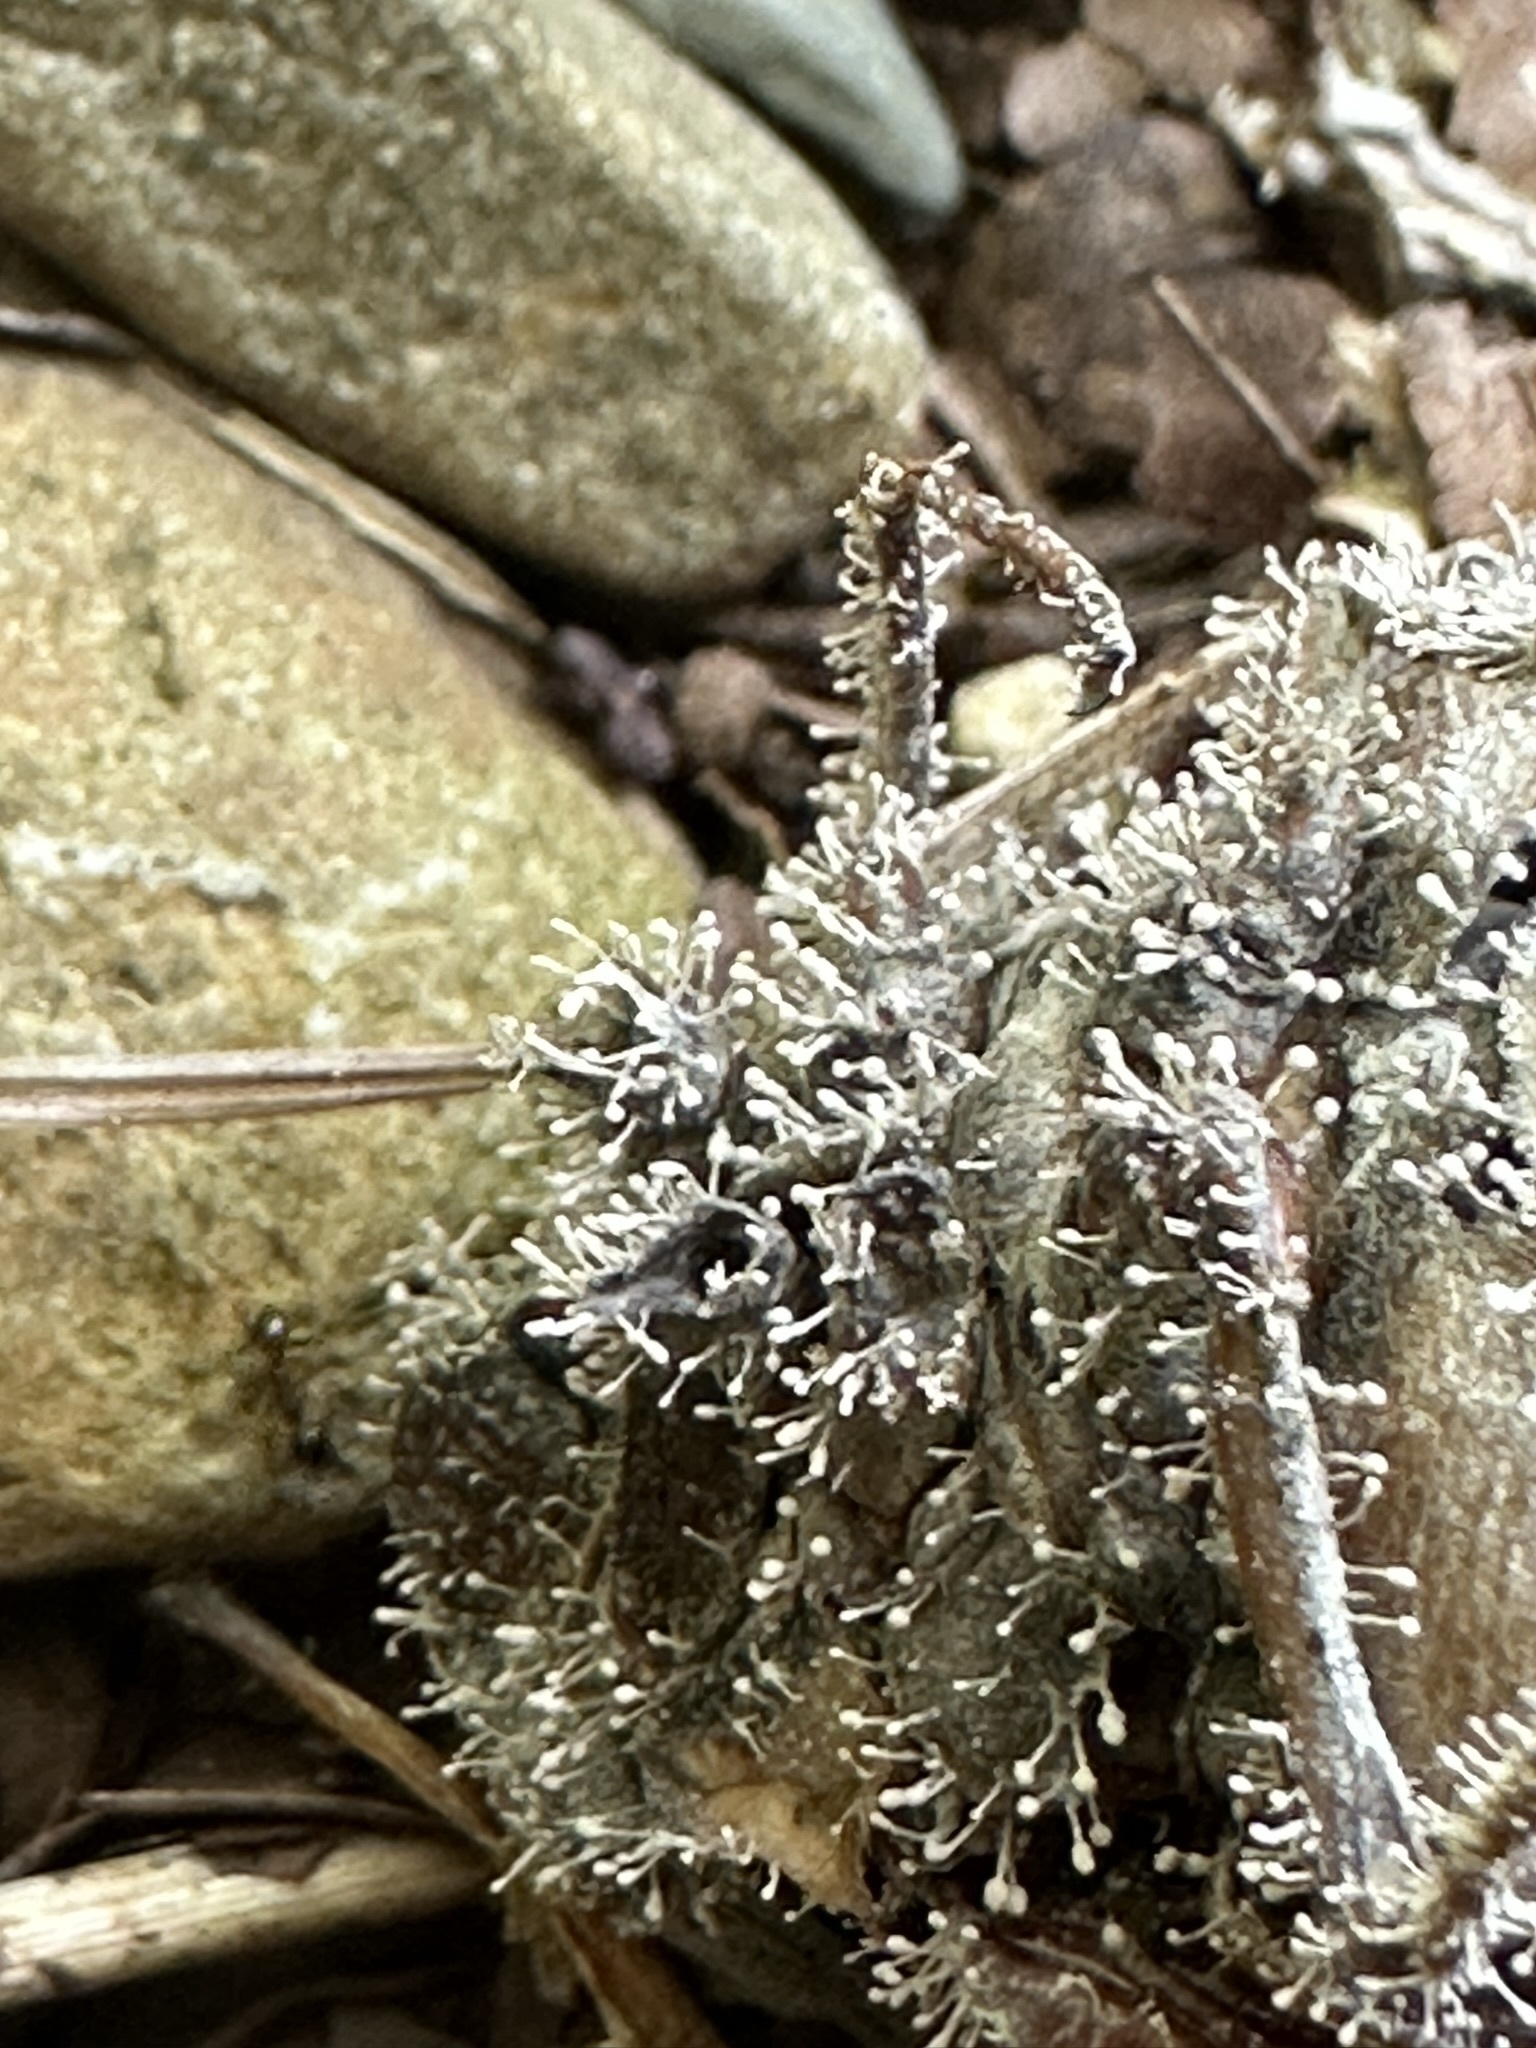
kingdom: Fungi
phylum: Ascomycota
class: Sordariomycetes
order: Hypocreales
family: Ophiocordycipitaceae
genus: Purpureocillium
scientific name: Purpureocillium takamizusanense
